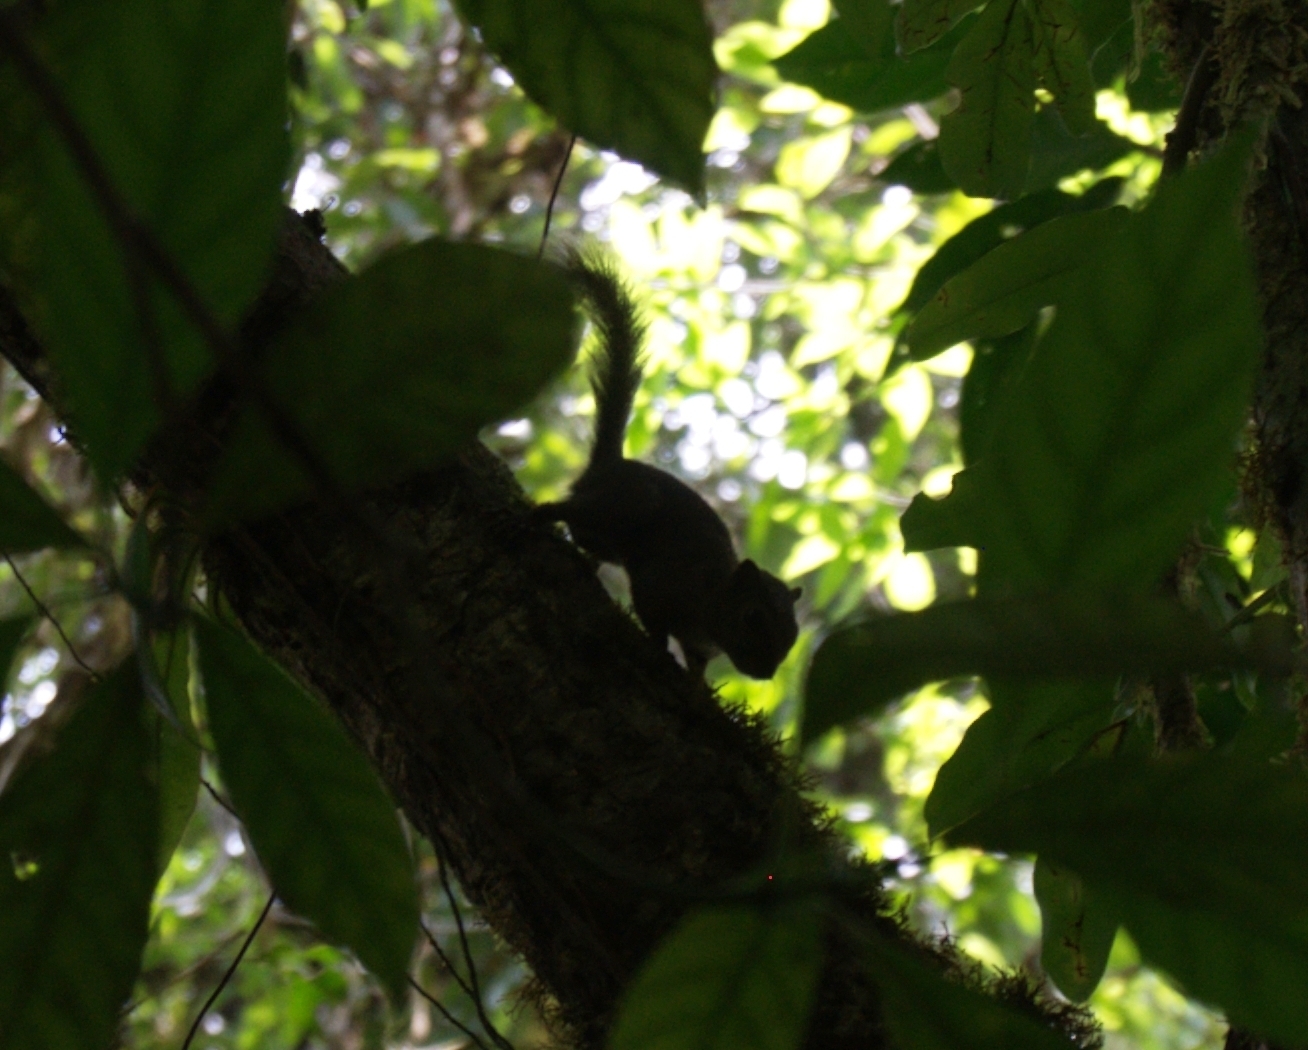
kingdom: Animalia
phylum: Chordata
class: Mammalia
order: Rodentia
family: Sciuridae
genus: Microsciurus
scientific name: Microsciurus alfari
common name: Central american dwarf squirrel
